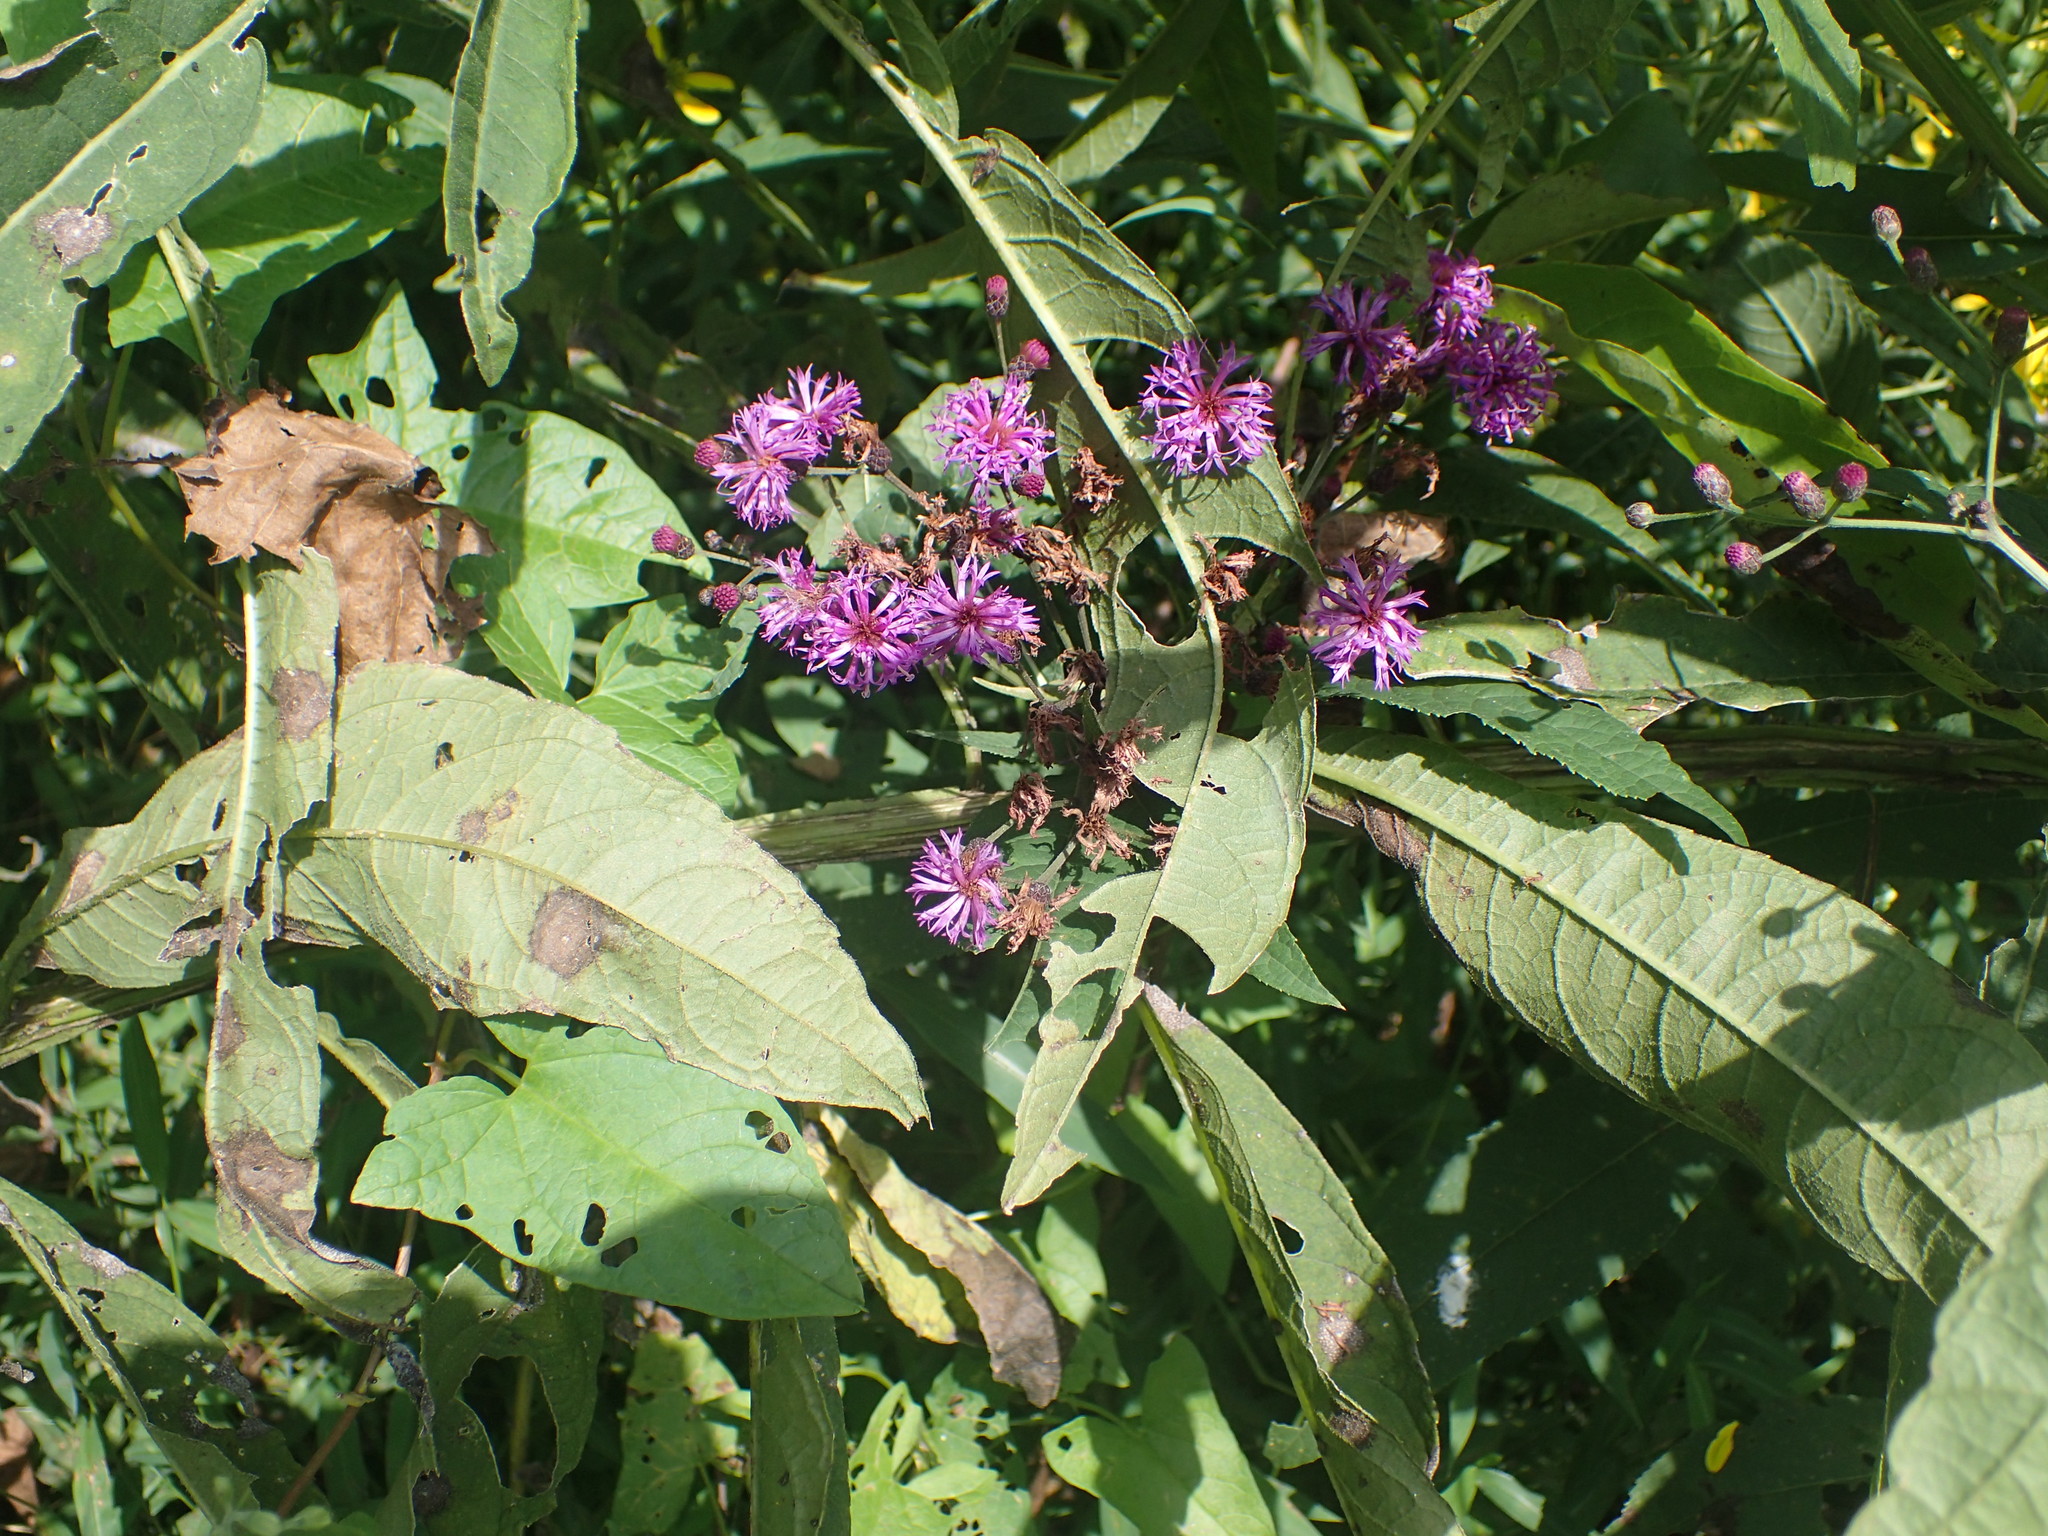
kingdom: Plantae
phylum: Tracheophyta
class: Magnoliopsida
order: Asterales
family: Asteraceae
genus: Vernonia
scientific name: Vernonia gigantea
